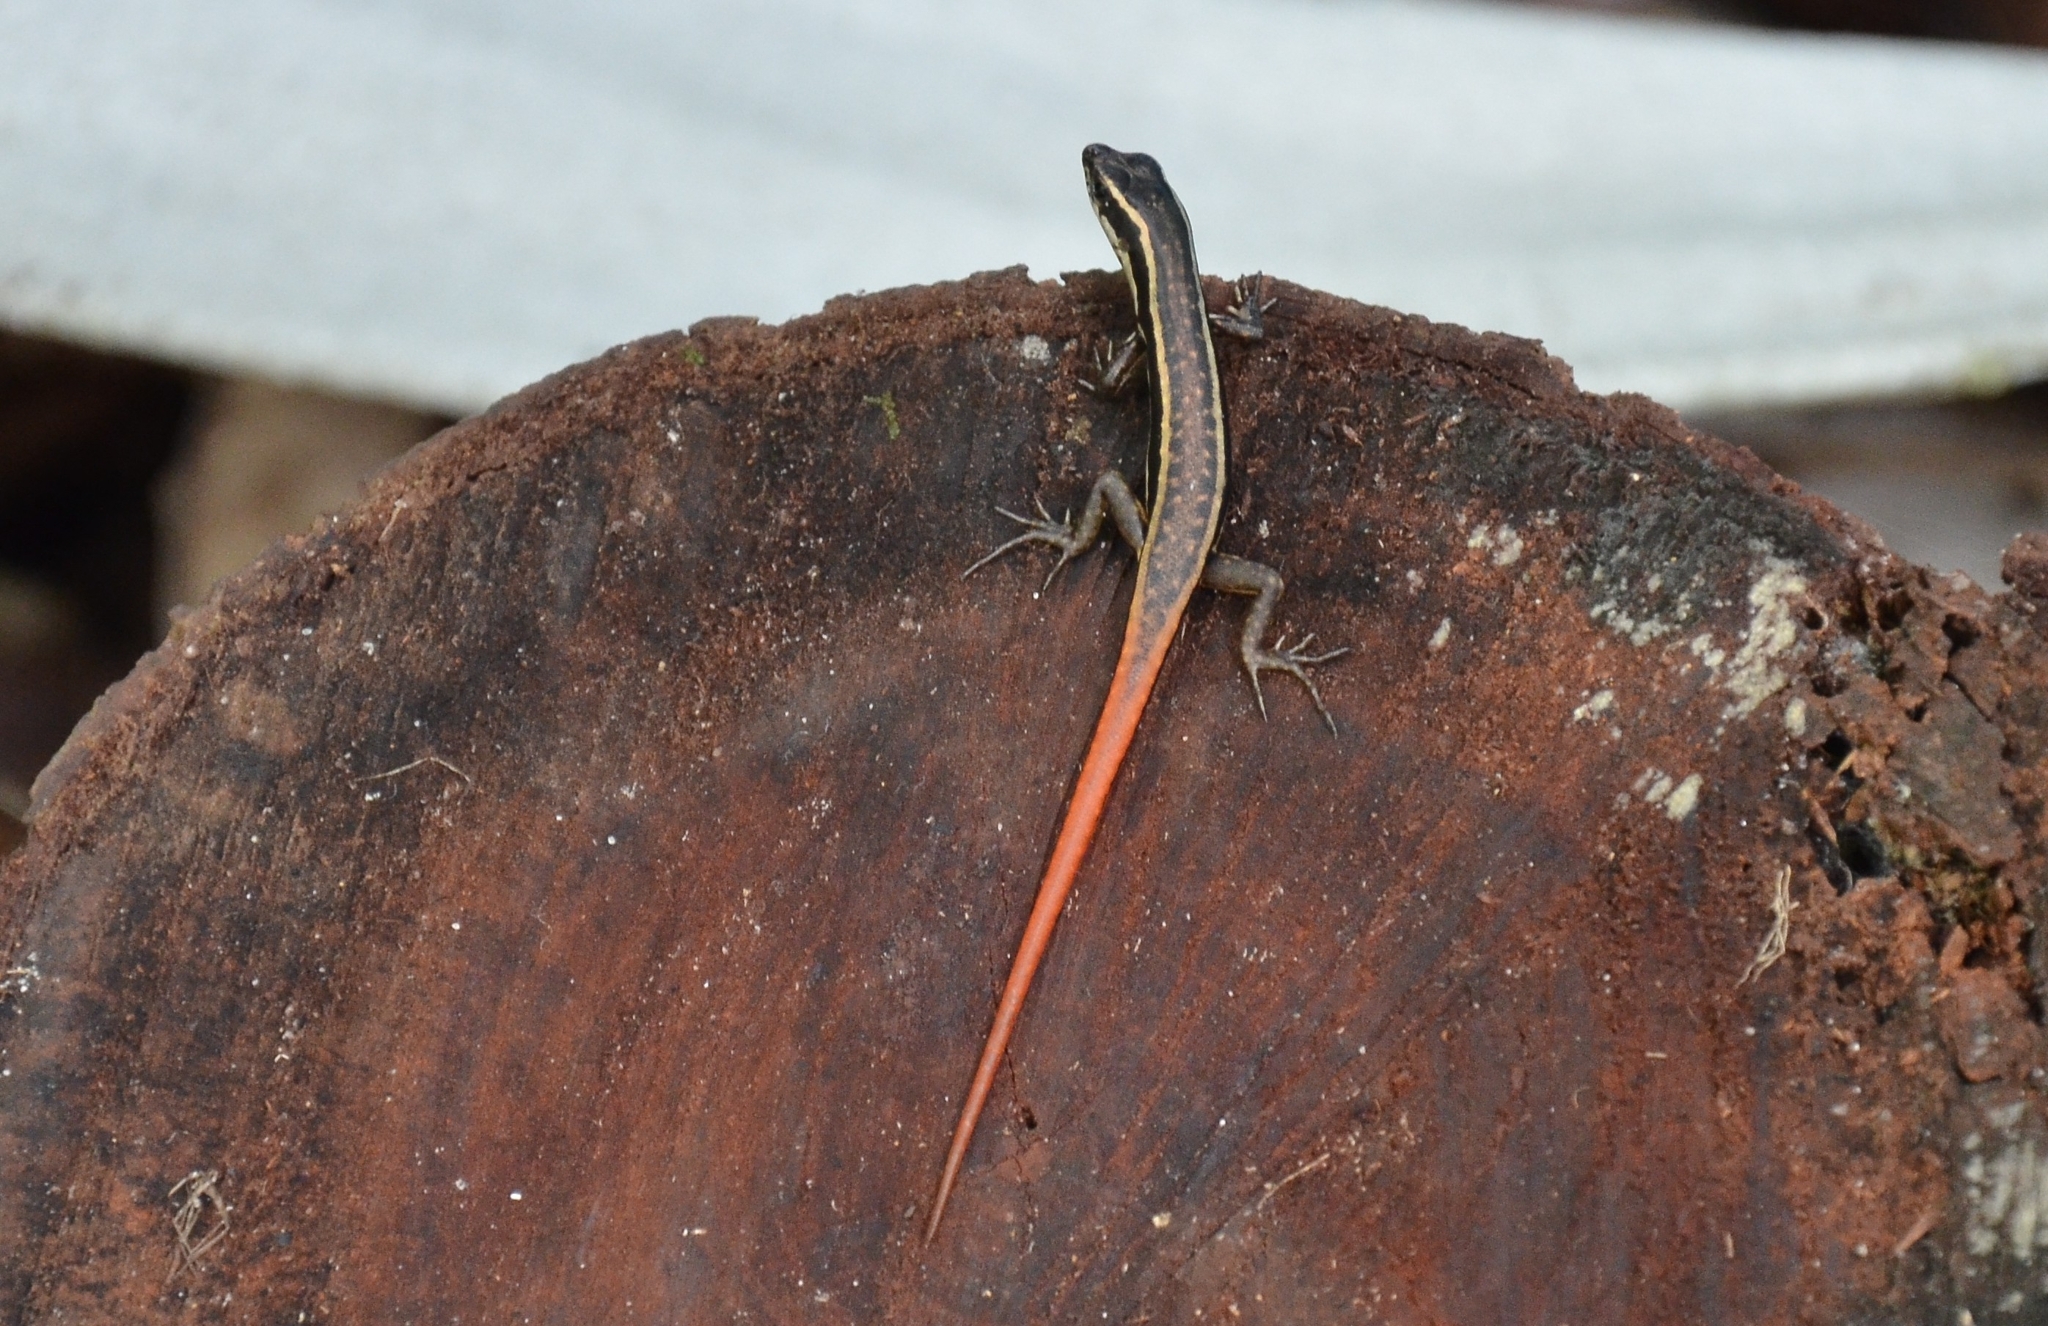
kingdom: Animalia
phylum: Chordata
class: Squamata
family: Scincidae
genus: Sphenomorphus
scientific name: Sphenomorphus dussumieri
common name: Dussumier's forest skink
